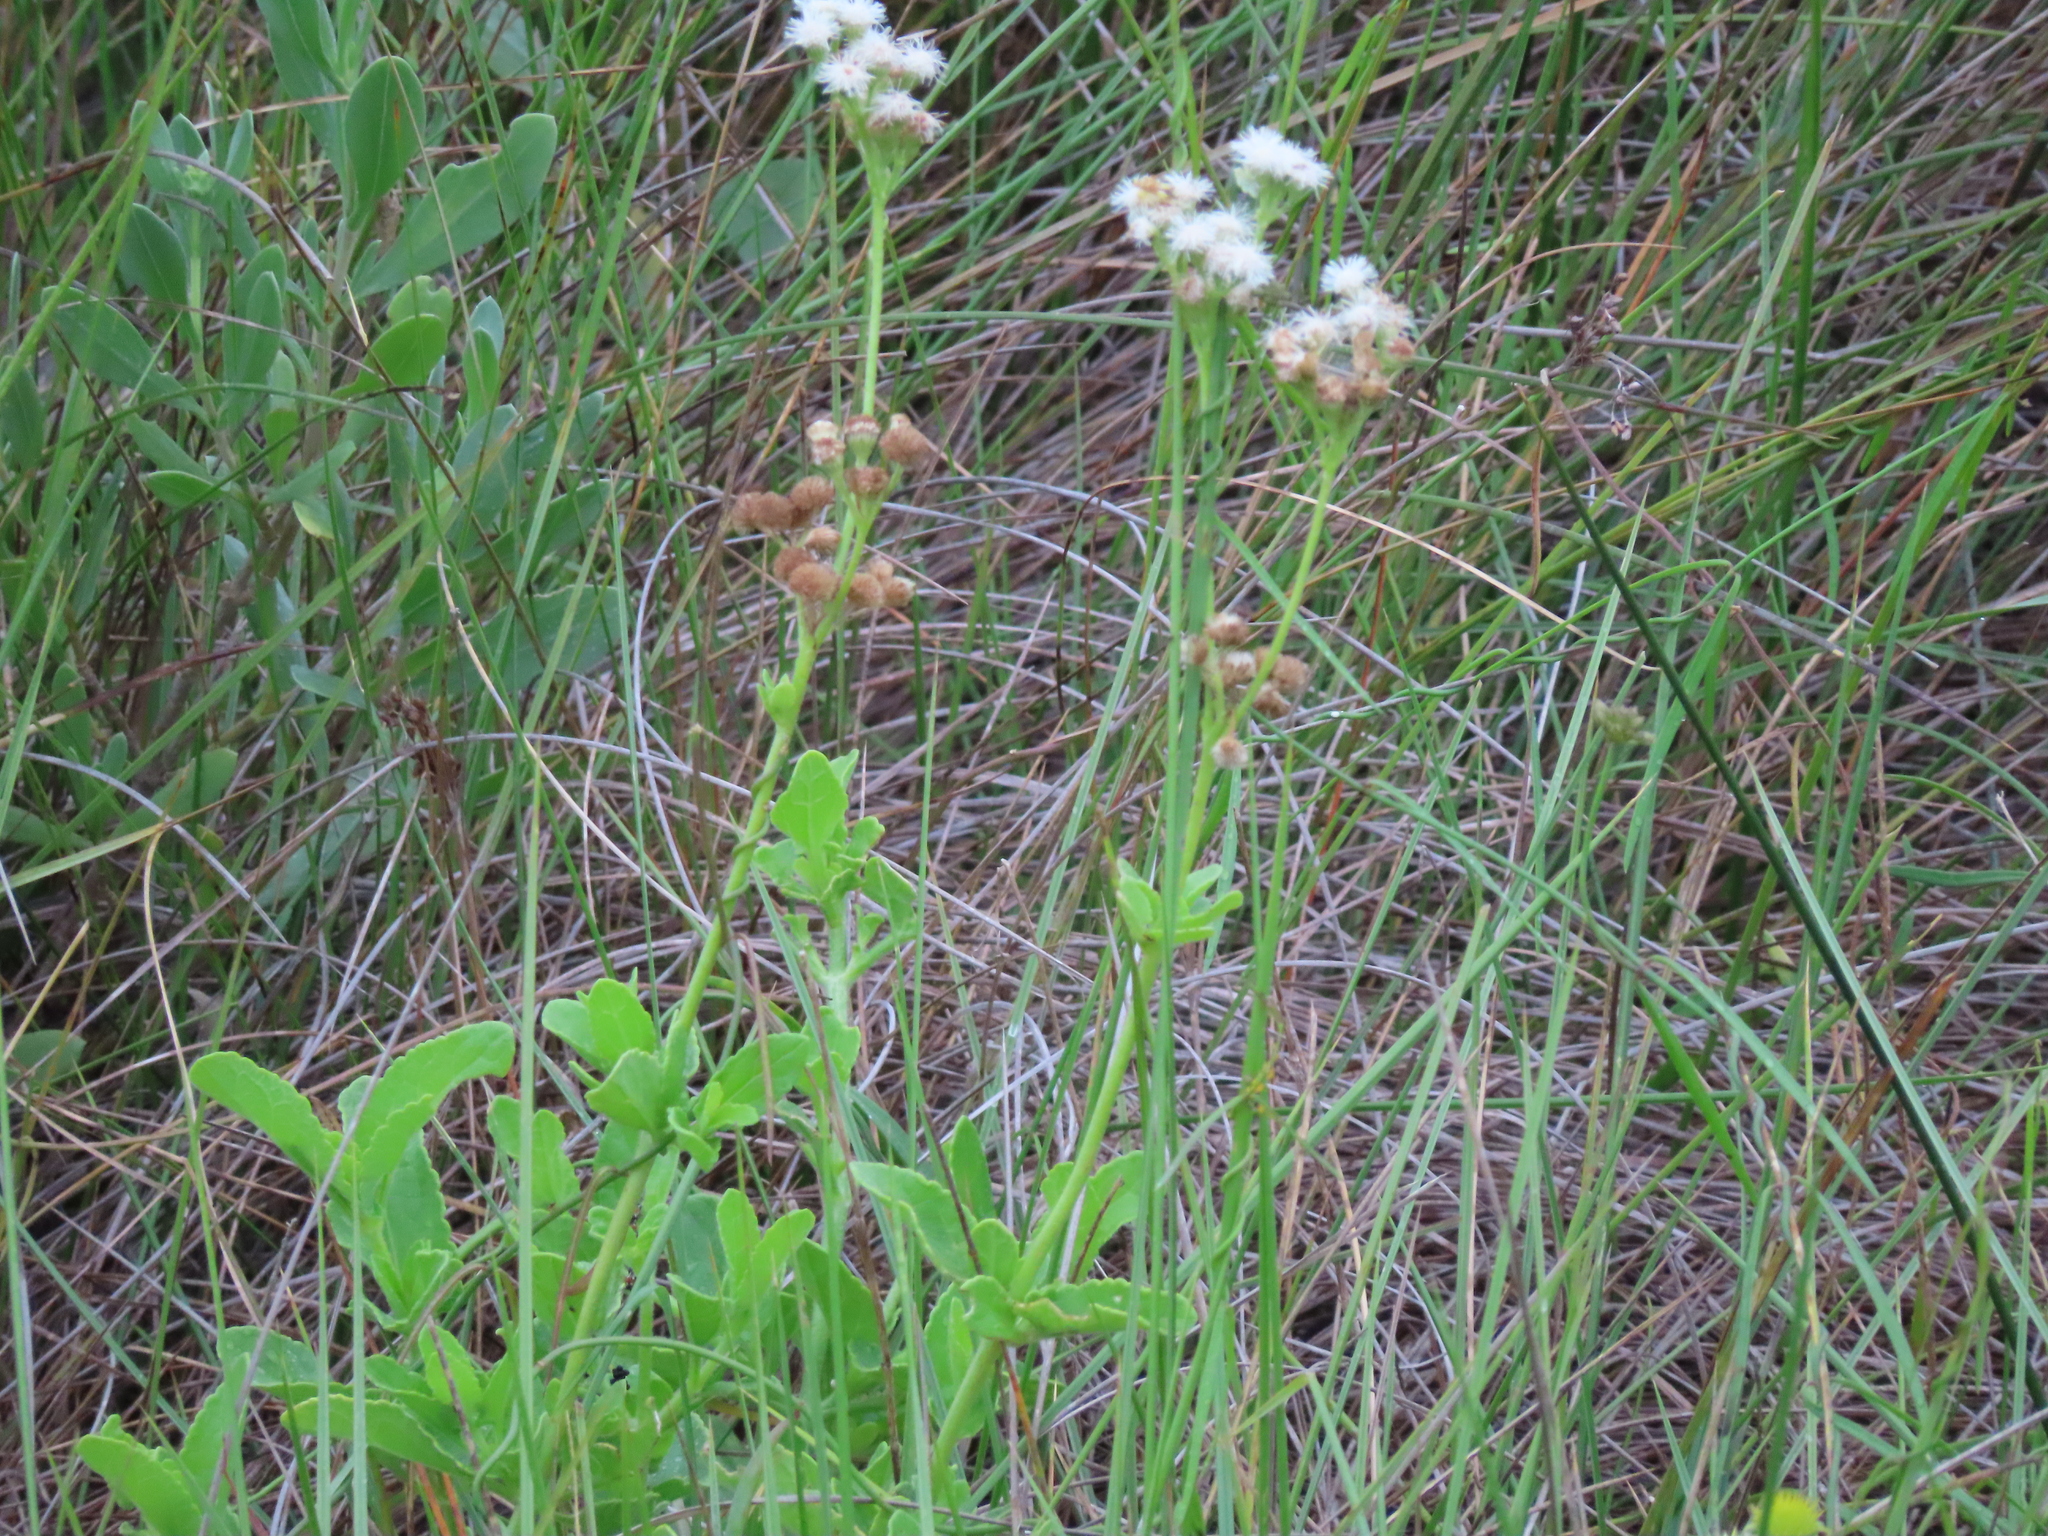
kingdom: Plantae
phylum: Tracheophyta
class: Magnoliopsida
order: Asterales
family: Asteraceae
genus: Conoclinium
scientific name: Conoclinium betonicifolium
